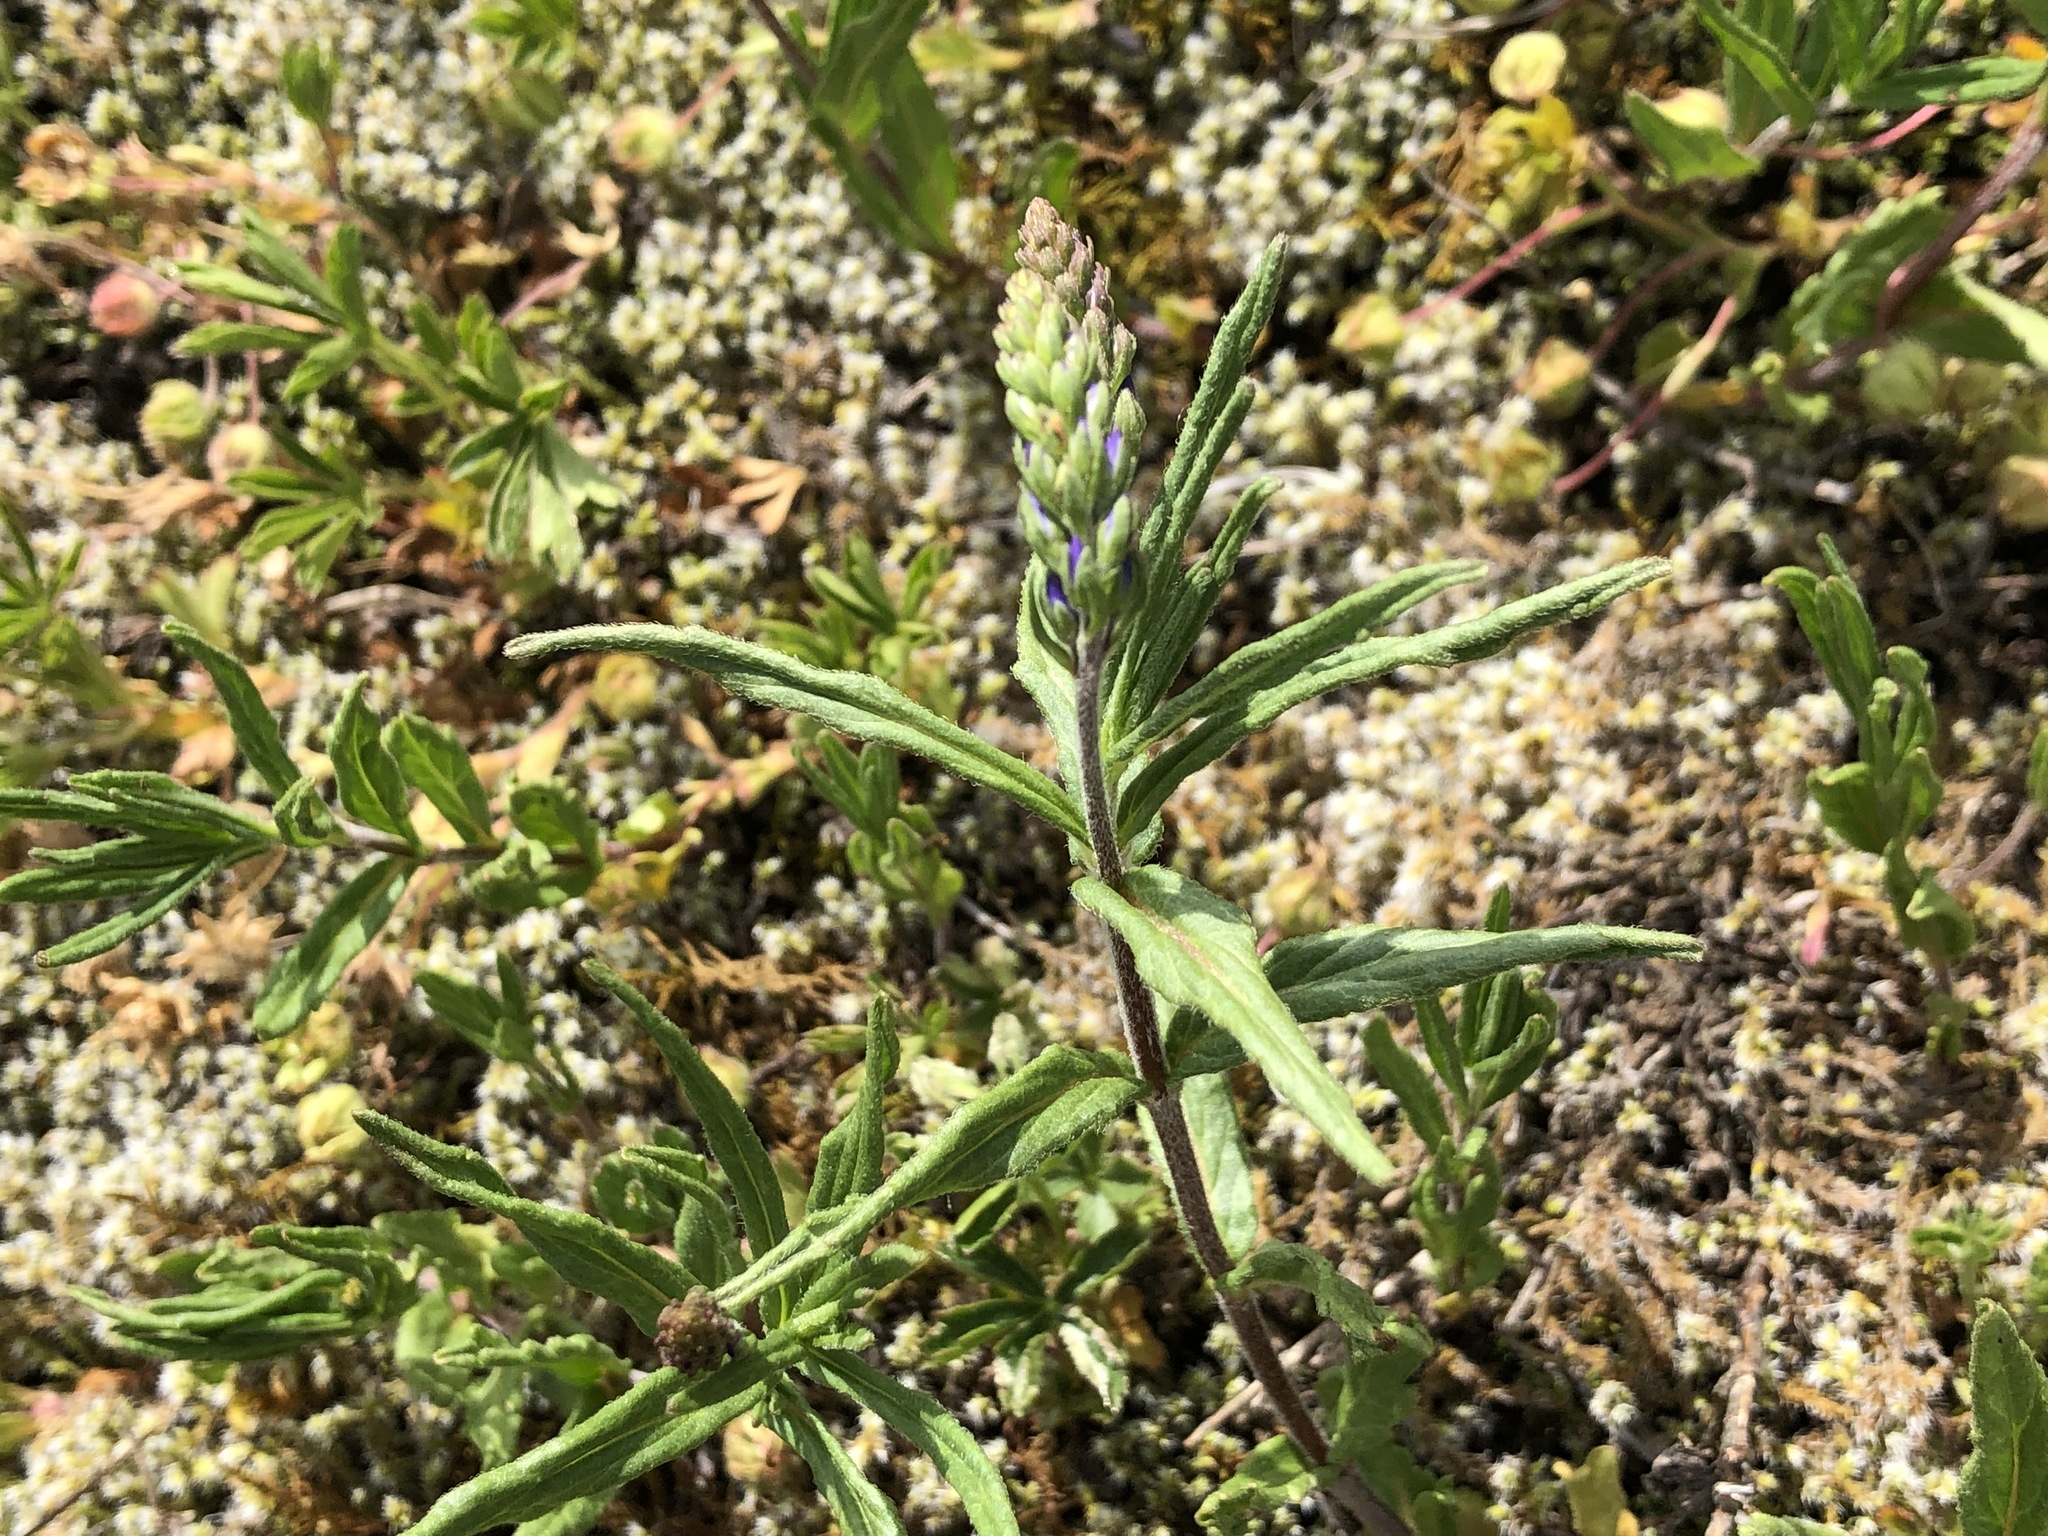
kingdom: Plantae
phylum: Tracheophyta
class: Magnoliopsida
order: Lamiales
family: Plantaginaceae
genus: Veronica
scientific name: Veronica satureiifolia
